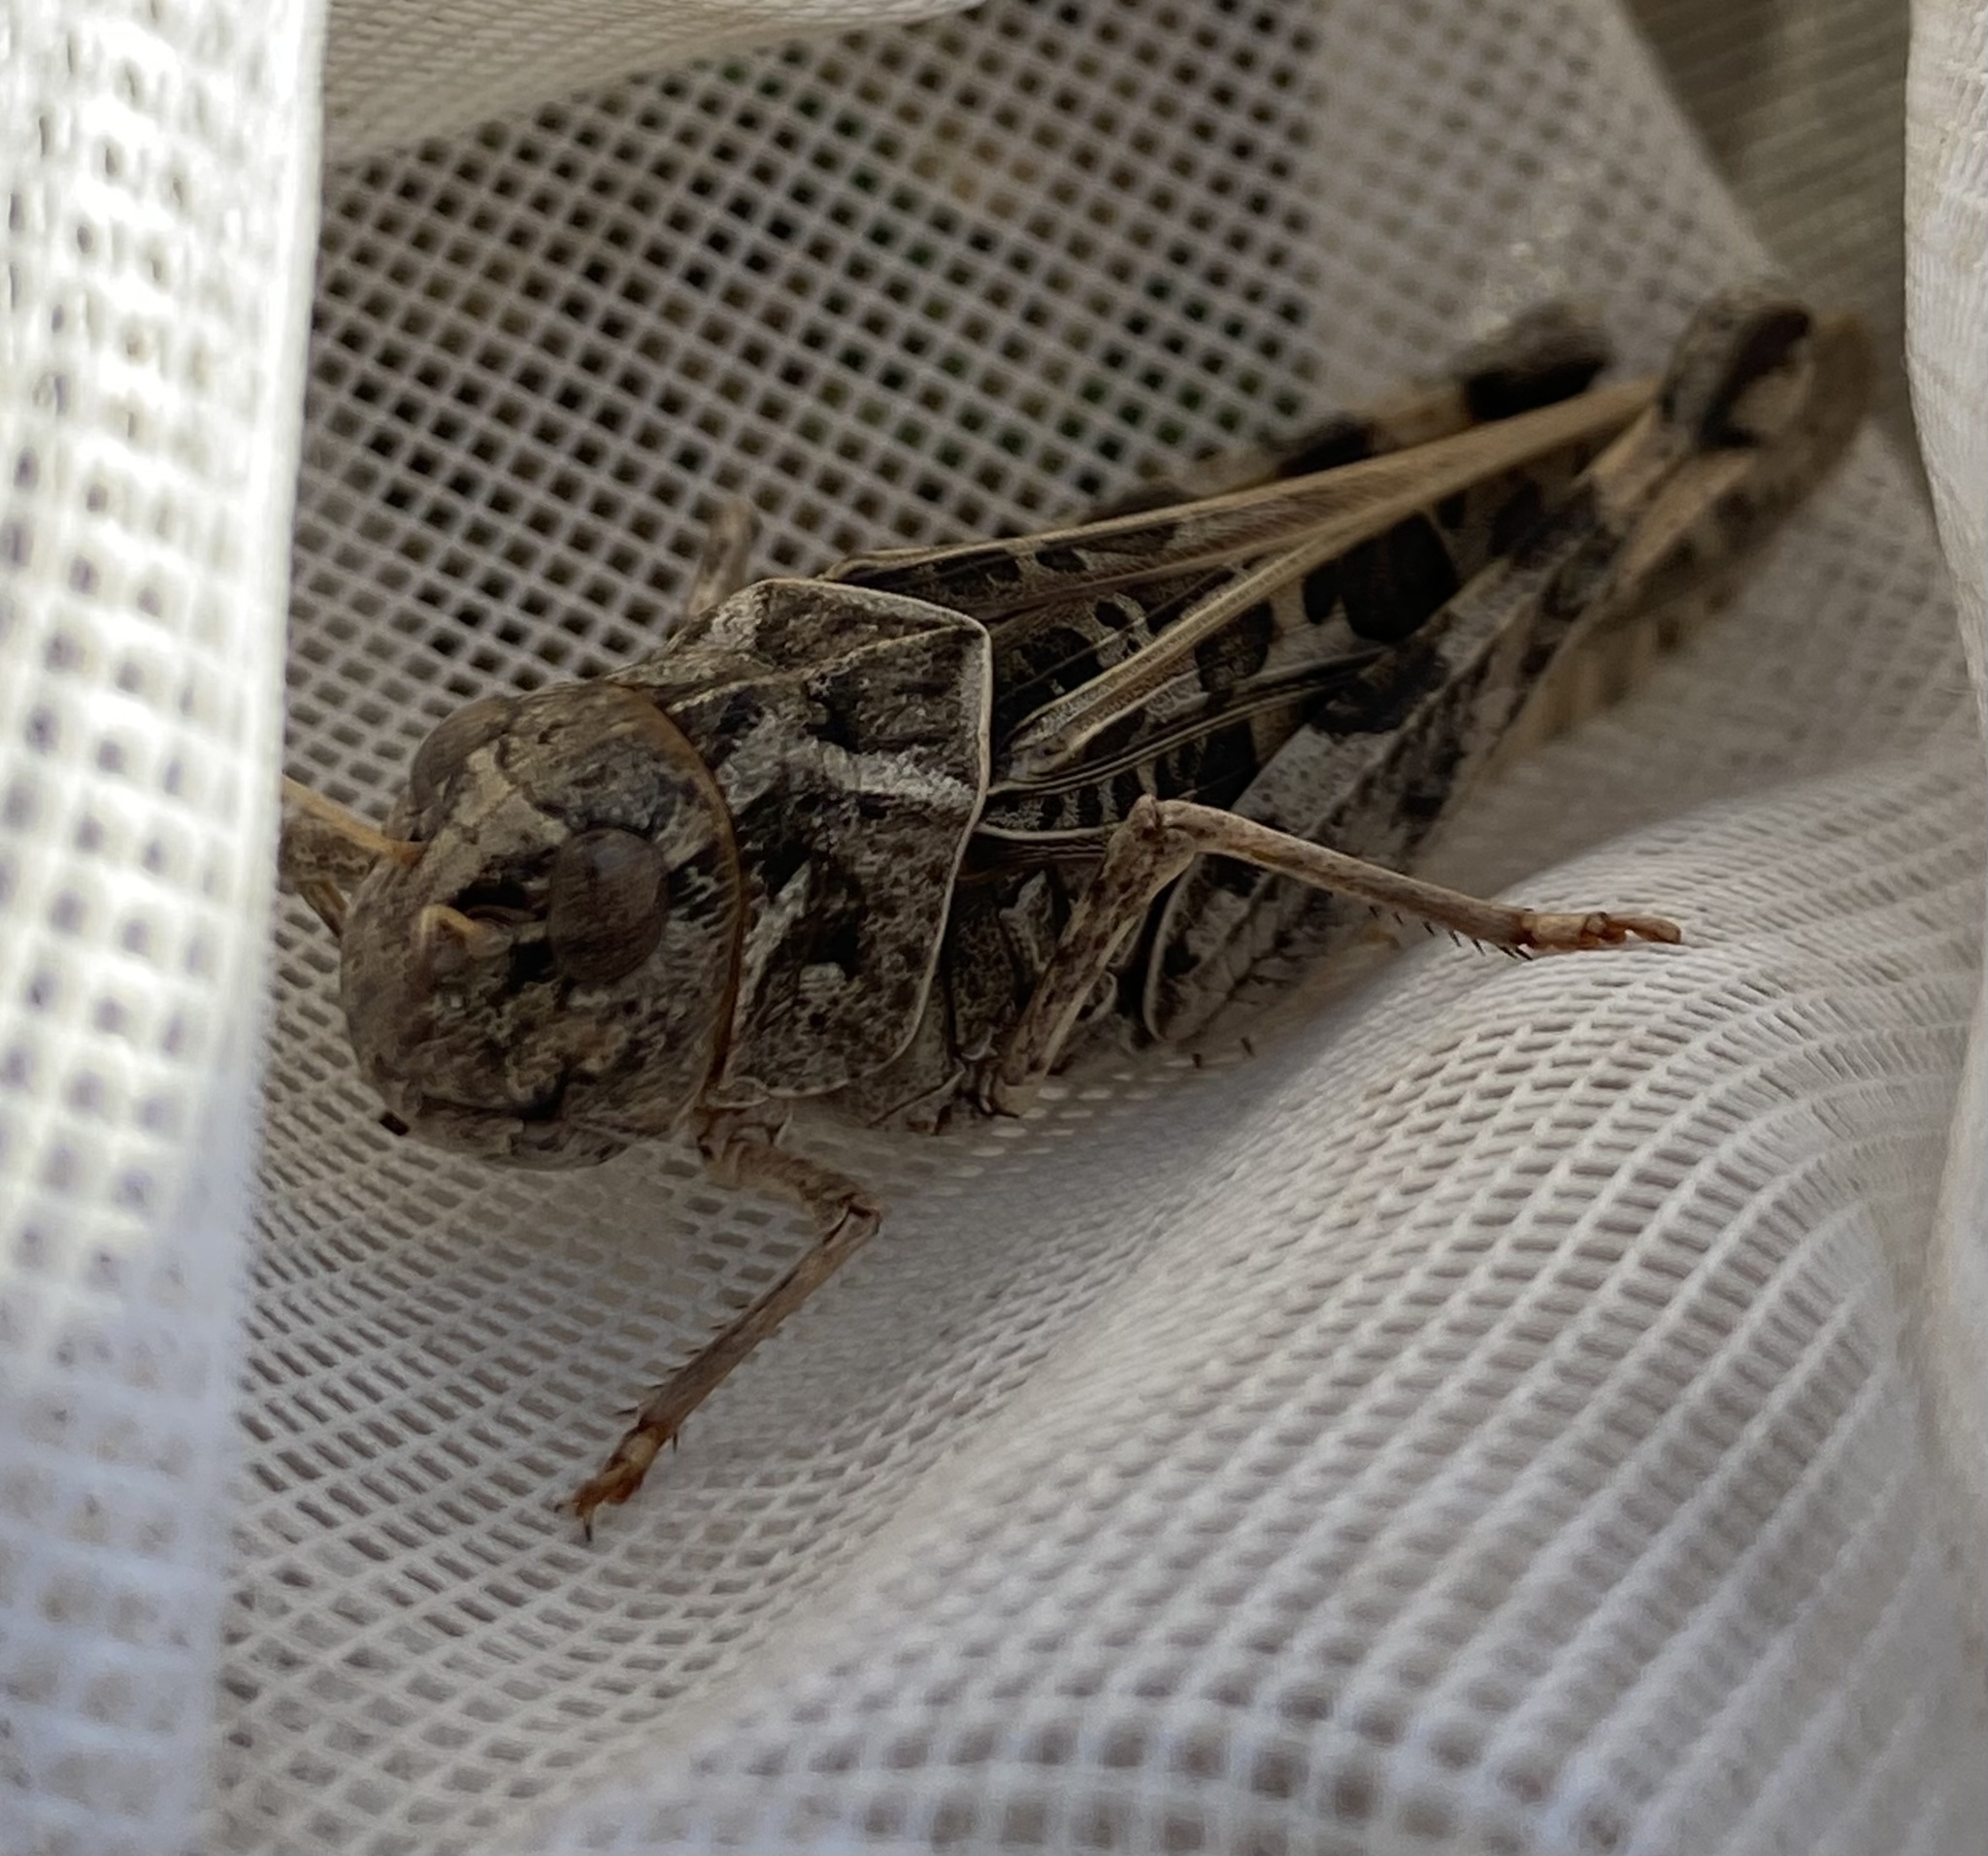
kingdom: Animalia
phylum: Arthropoda
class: Insecta
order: Orthoptera
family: Acrididae
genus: Hippiscus
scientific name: Hippiscus ocelote
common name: Wrinkled grasshopper
